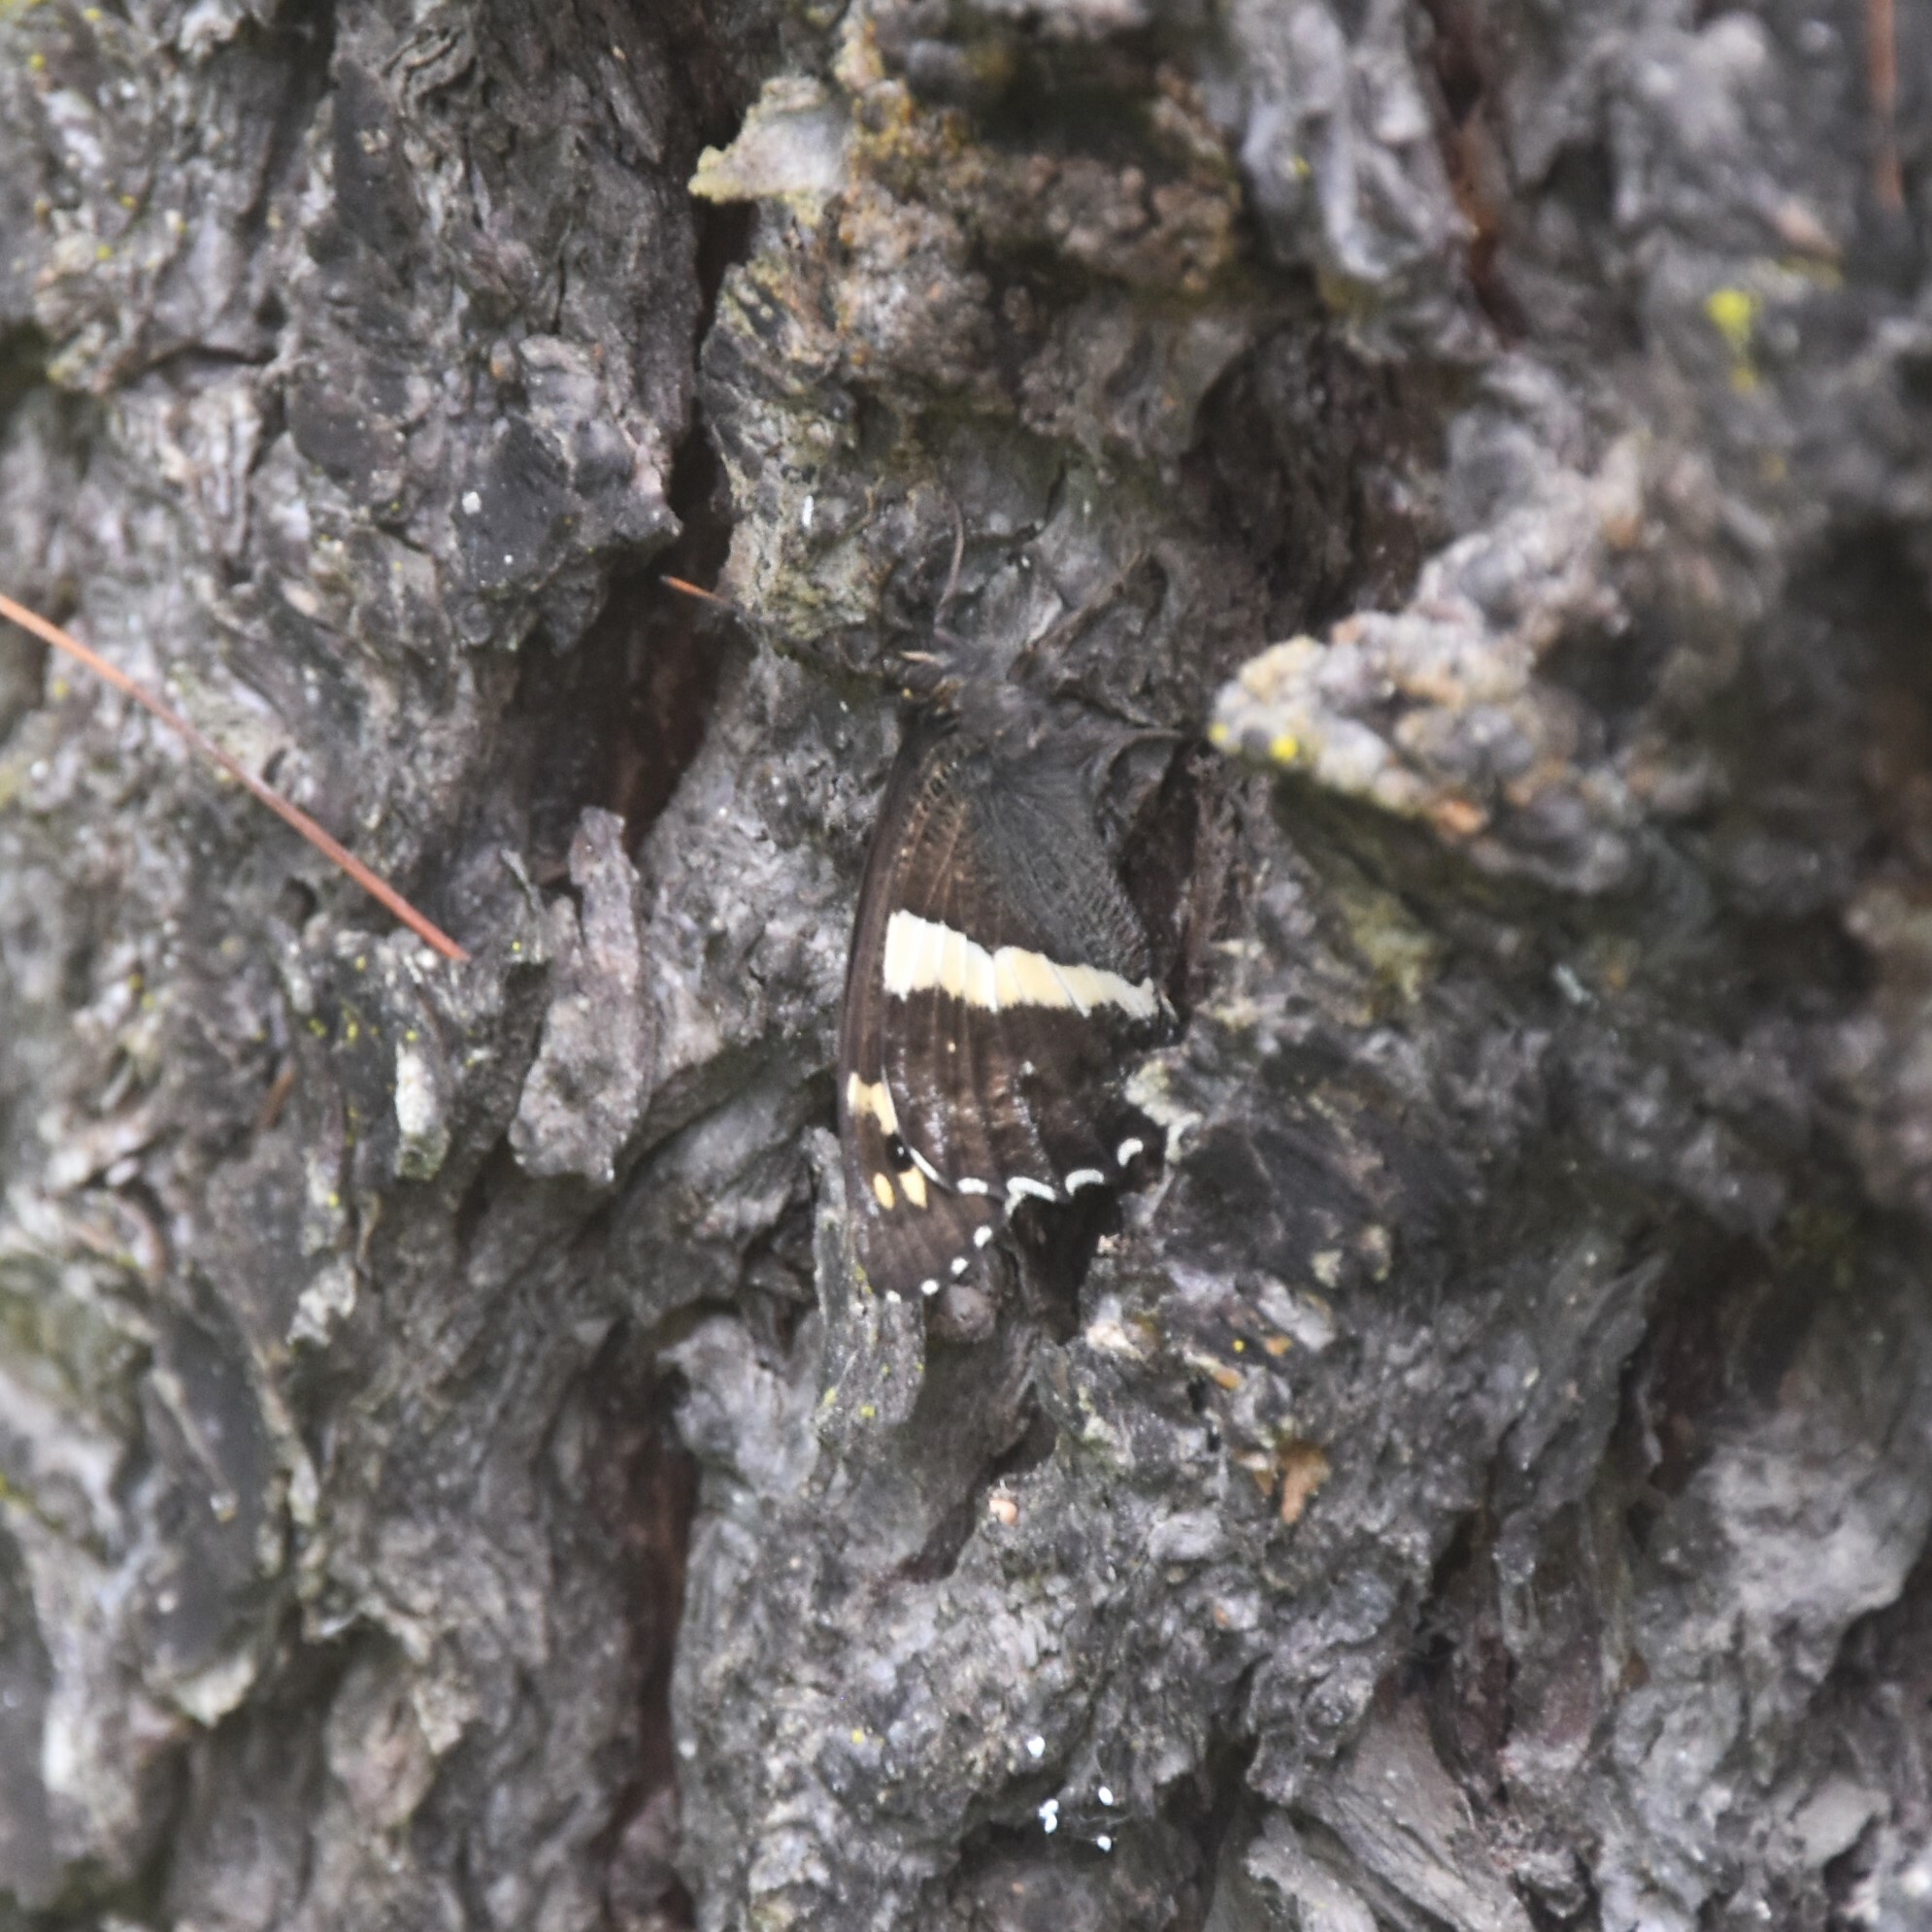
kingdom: Animalia
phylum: Arthropoda
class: Insecta
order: Lepidoptera
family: Nymphalidae
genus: Satyrus
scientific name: Satyrus Aulocera swaha
